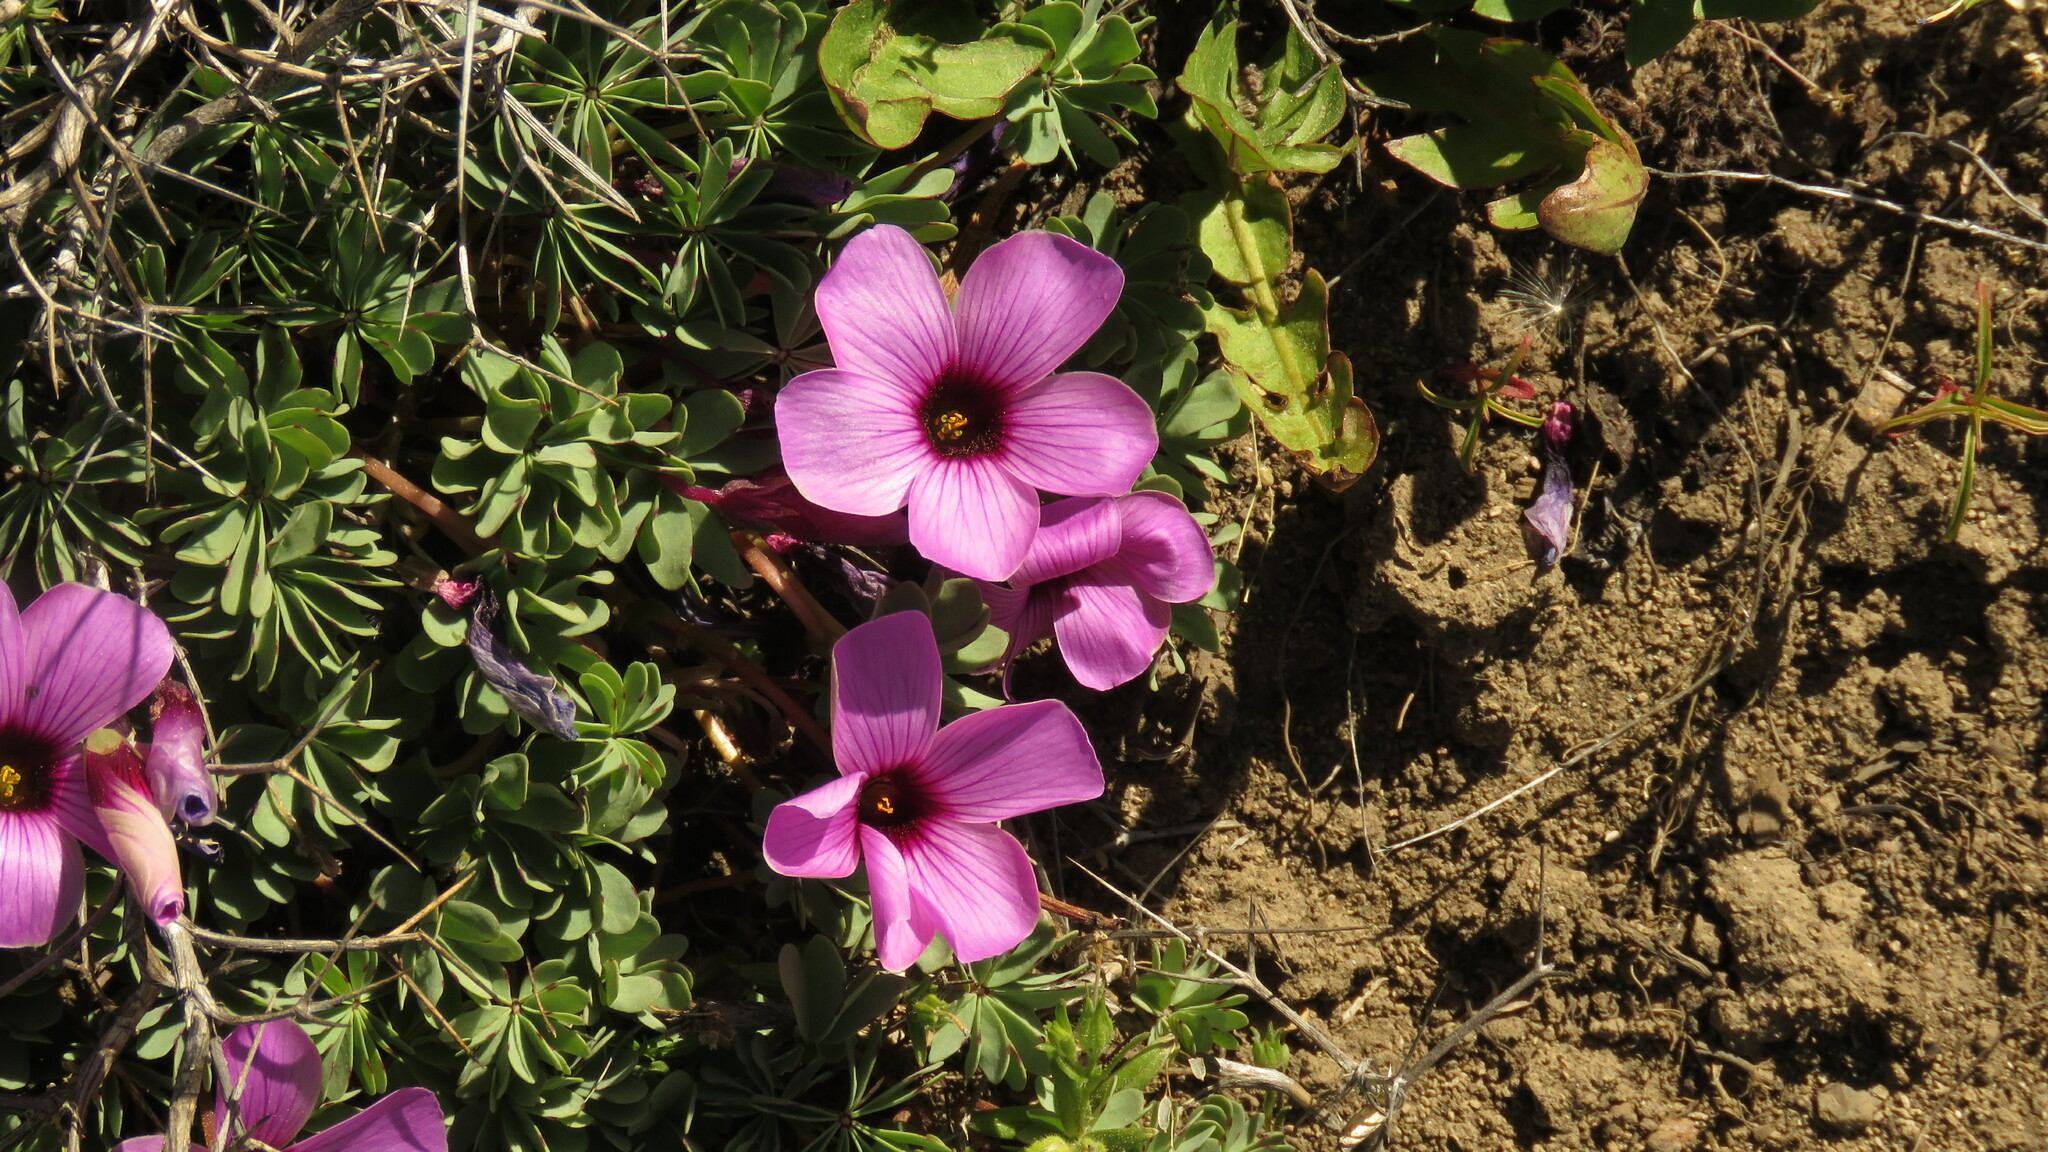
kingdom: Plantae
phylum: Tracheophyta
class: Magnoliopsida
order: Oxalidales
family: Oxalidaceae
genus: Oxalis
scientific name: Oxalis adenophylla
